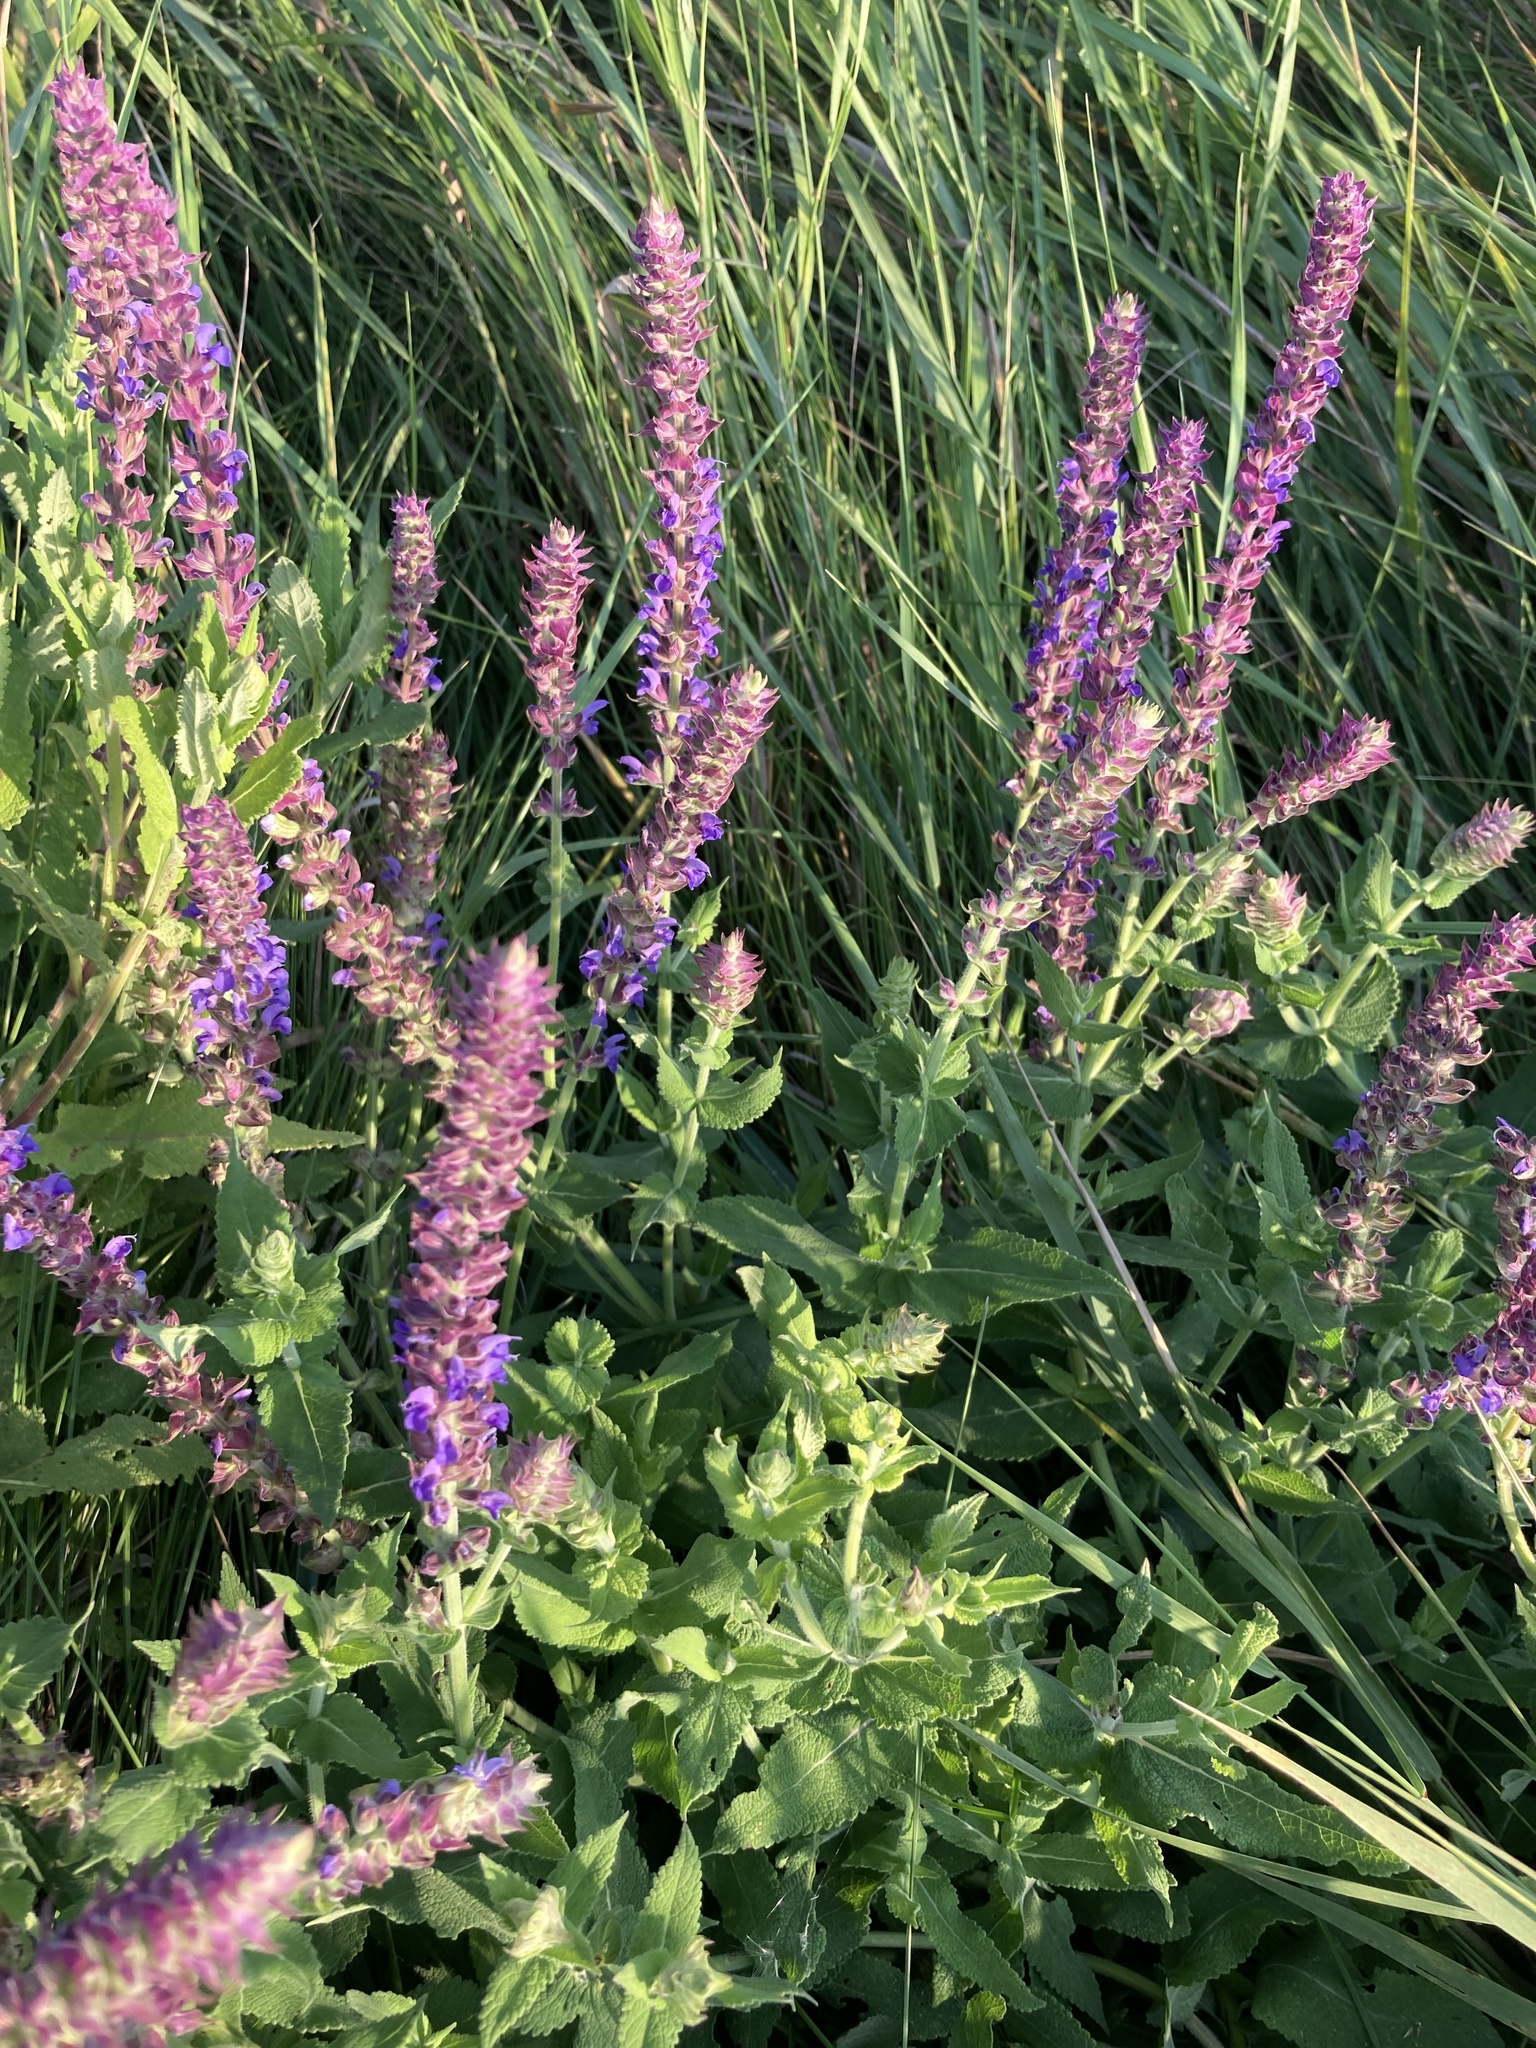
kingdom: Plantae
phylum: Tracheophyta
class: Magnoliopsida
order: Lamiales
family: Lamiaceae
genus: Salvia
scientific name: Salvia nemorosa
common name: Balkan clary
